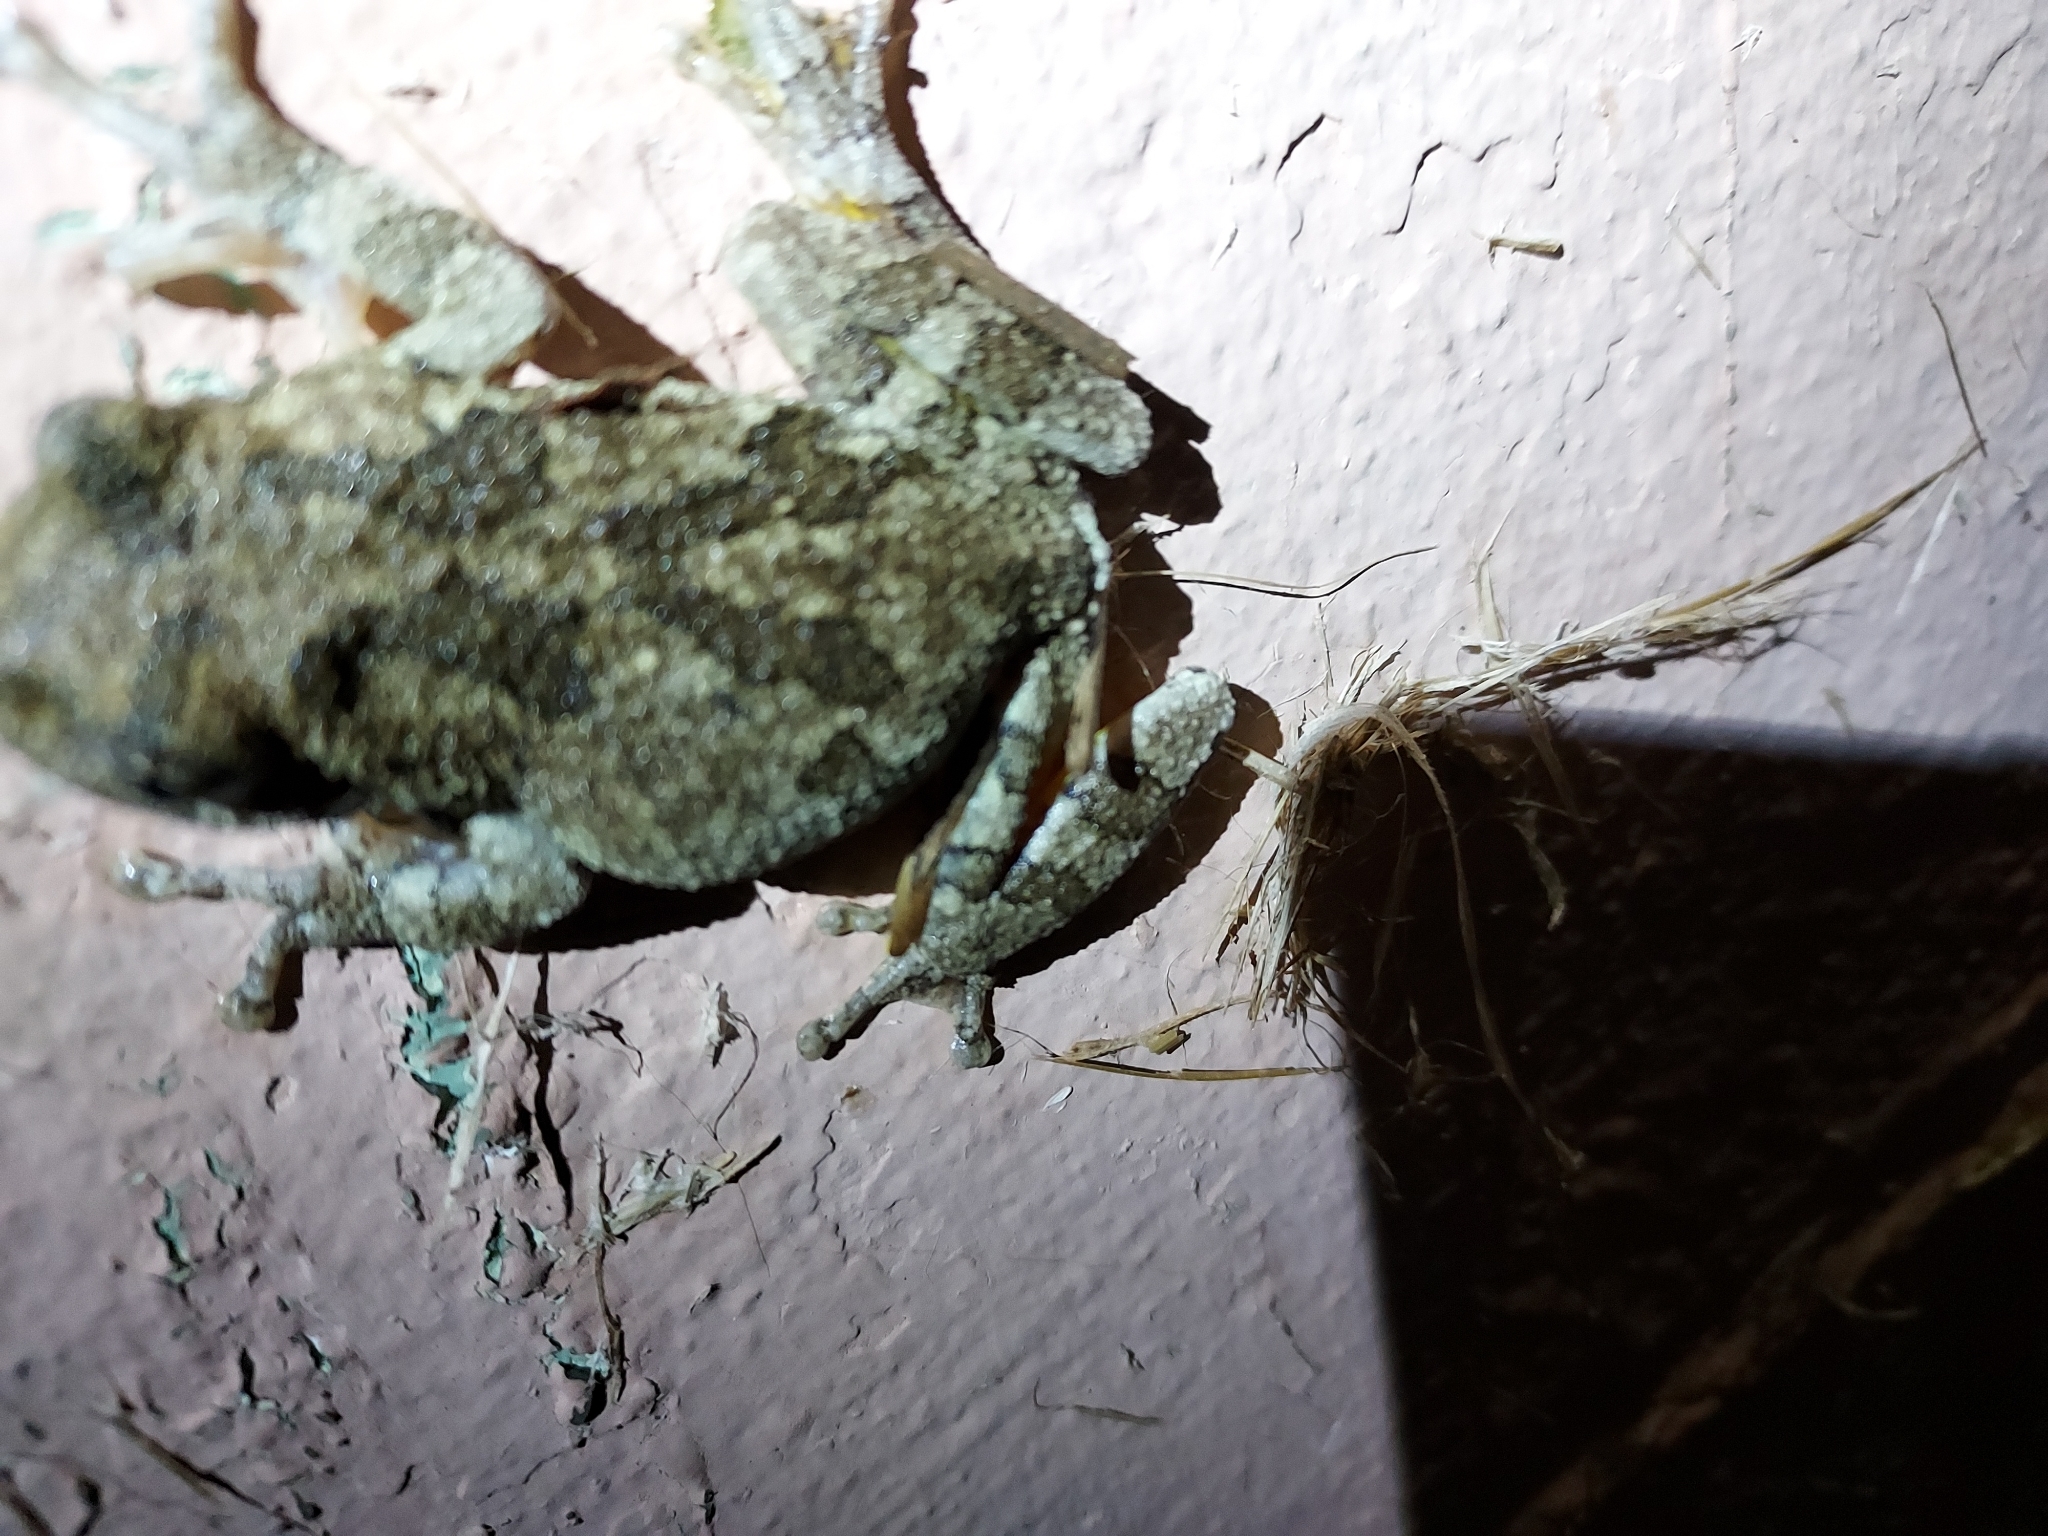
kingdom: Animalia
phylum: Chordata
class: Amphibia
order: Anura
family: Hylidae
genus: Dryophytes
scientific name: Dryophytes chrysoscelis
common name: Cope's gray treefrog
